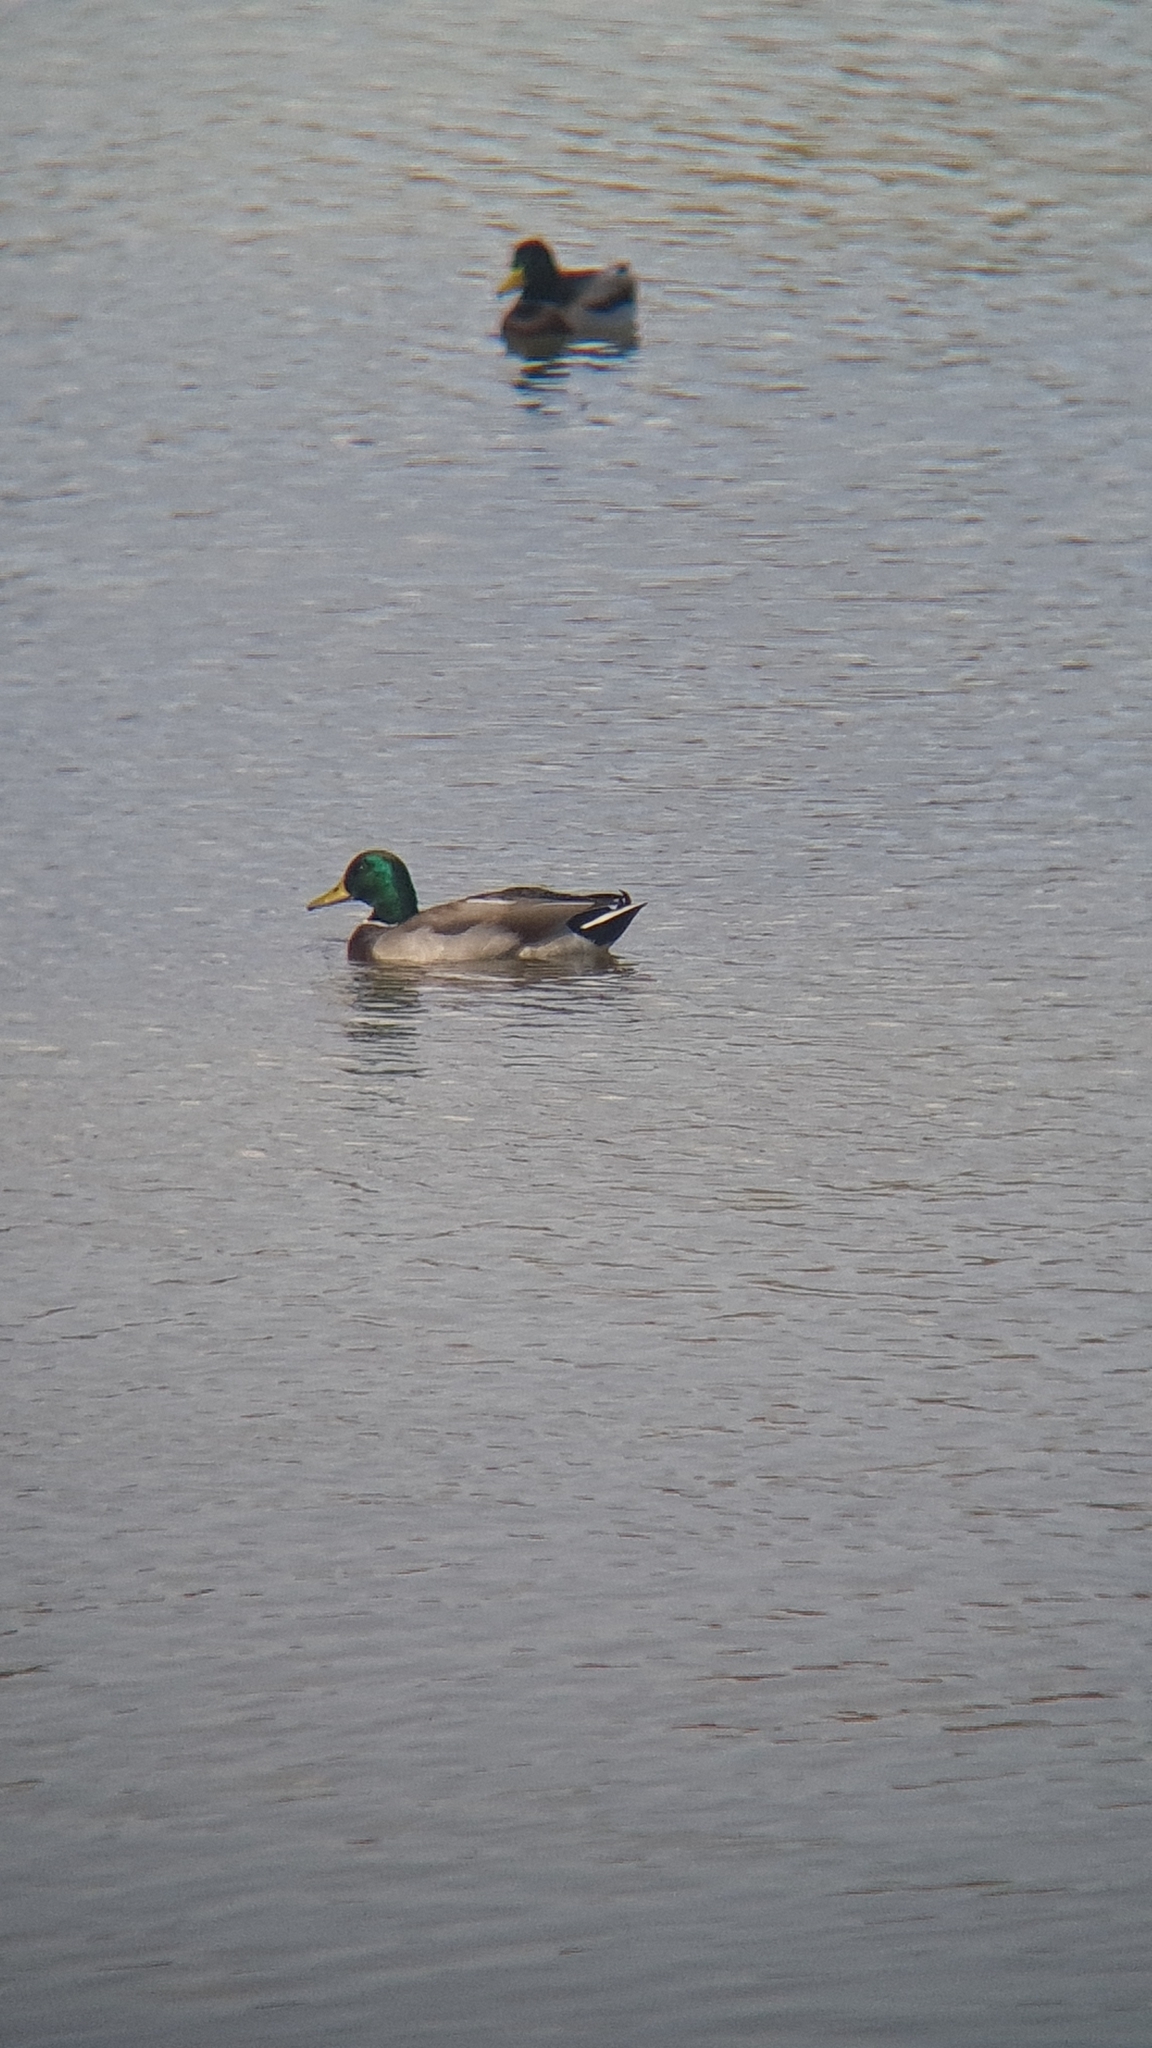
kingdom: Animalia
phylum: Chordata
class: Aves
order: Anseriformes
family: Anatidae
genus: Anas
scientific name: Anas platyrhynchos
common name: Mallard
